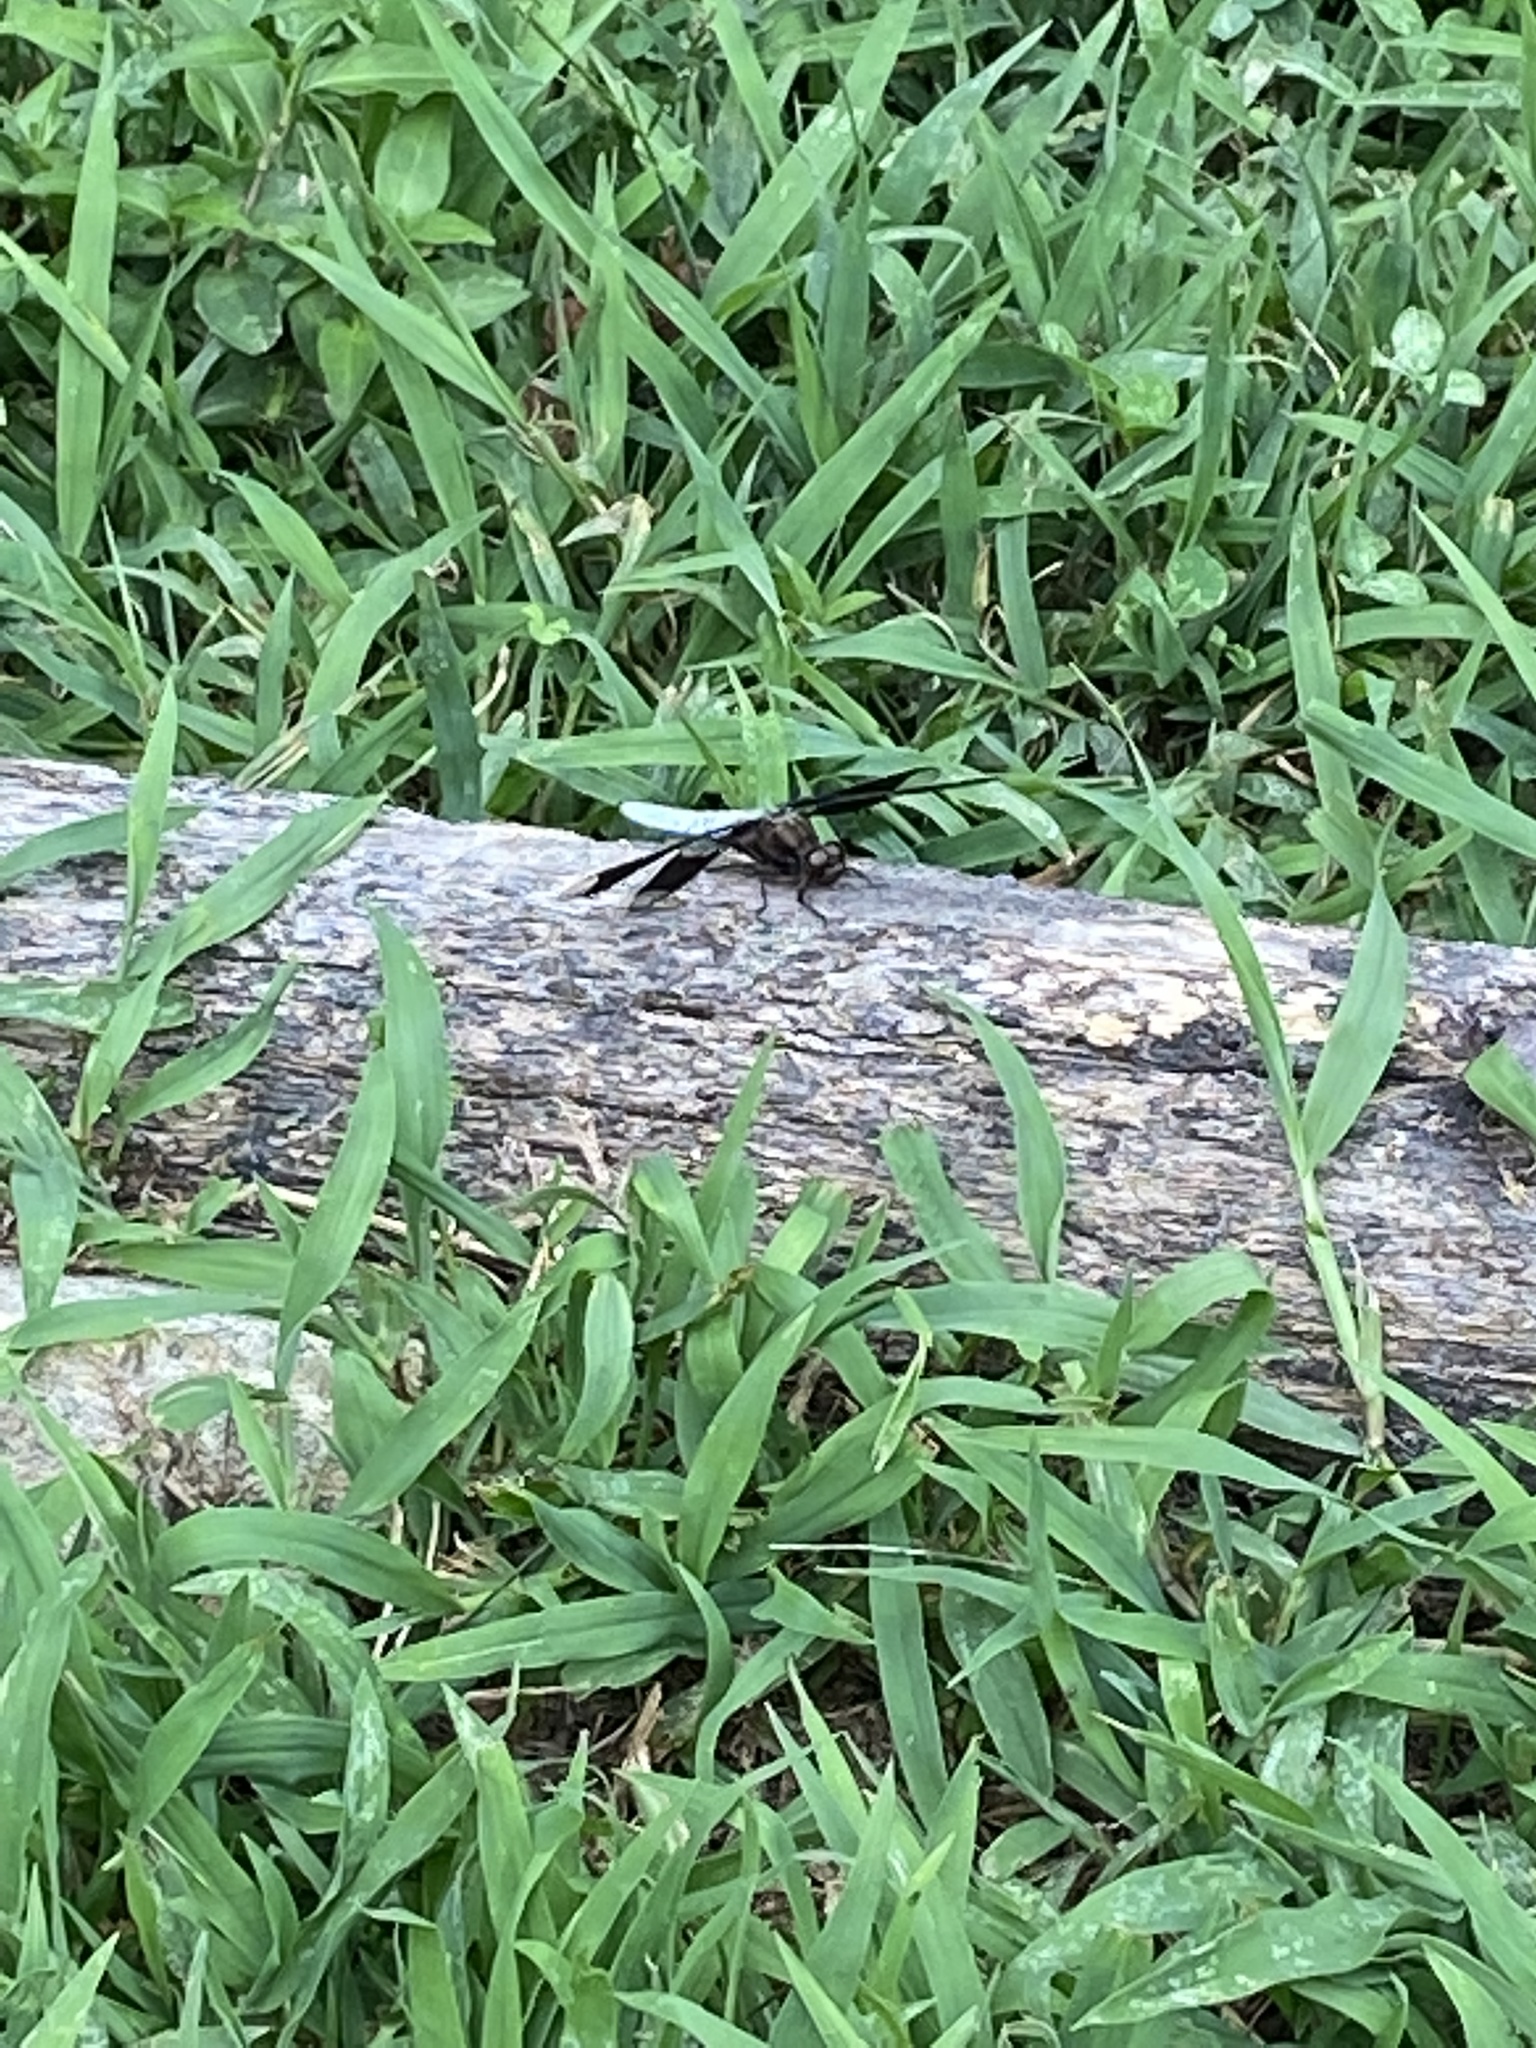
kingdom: Animalia
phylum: Arthropoda
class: Insecta
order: Odonata
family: Libellulidae
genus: Plathemis
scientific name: Plathemis lydia
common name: Common whitetail
